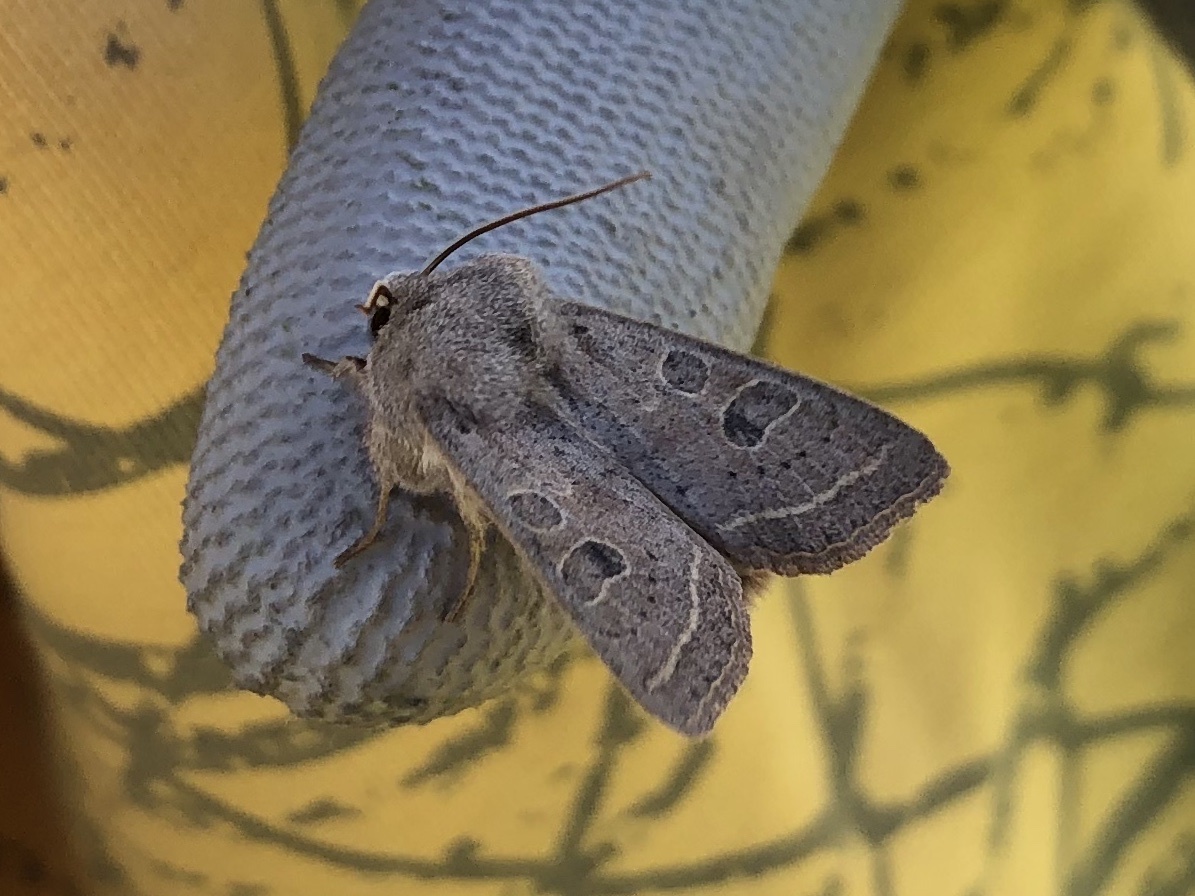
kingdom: Animalia
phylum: Arthropoda
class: Insecta
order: Lepidoptera
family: Noctuidae
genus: Orthosia
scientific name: Orthosia gracilis
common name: Powdered quaker
